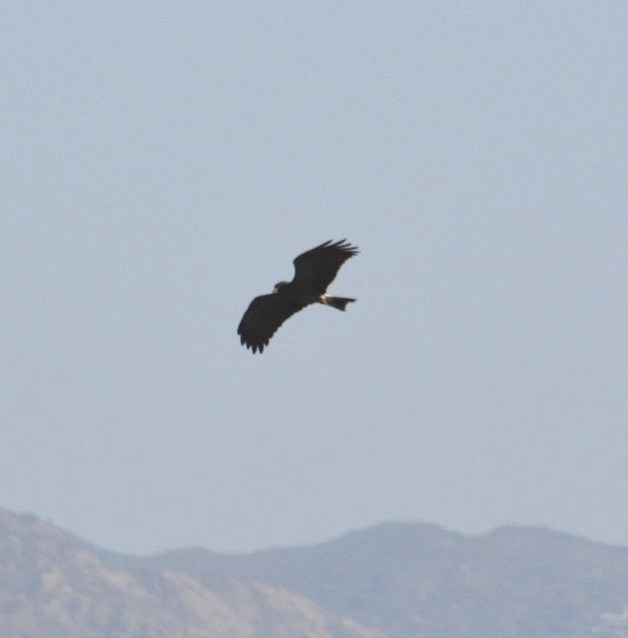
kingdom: Animalia
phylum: Chordata
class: Aves
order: Accipitriformes
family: Accipitridae
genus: Rostrhamus
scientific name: Rostrhamus sociabilis
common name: Snail kite
